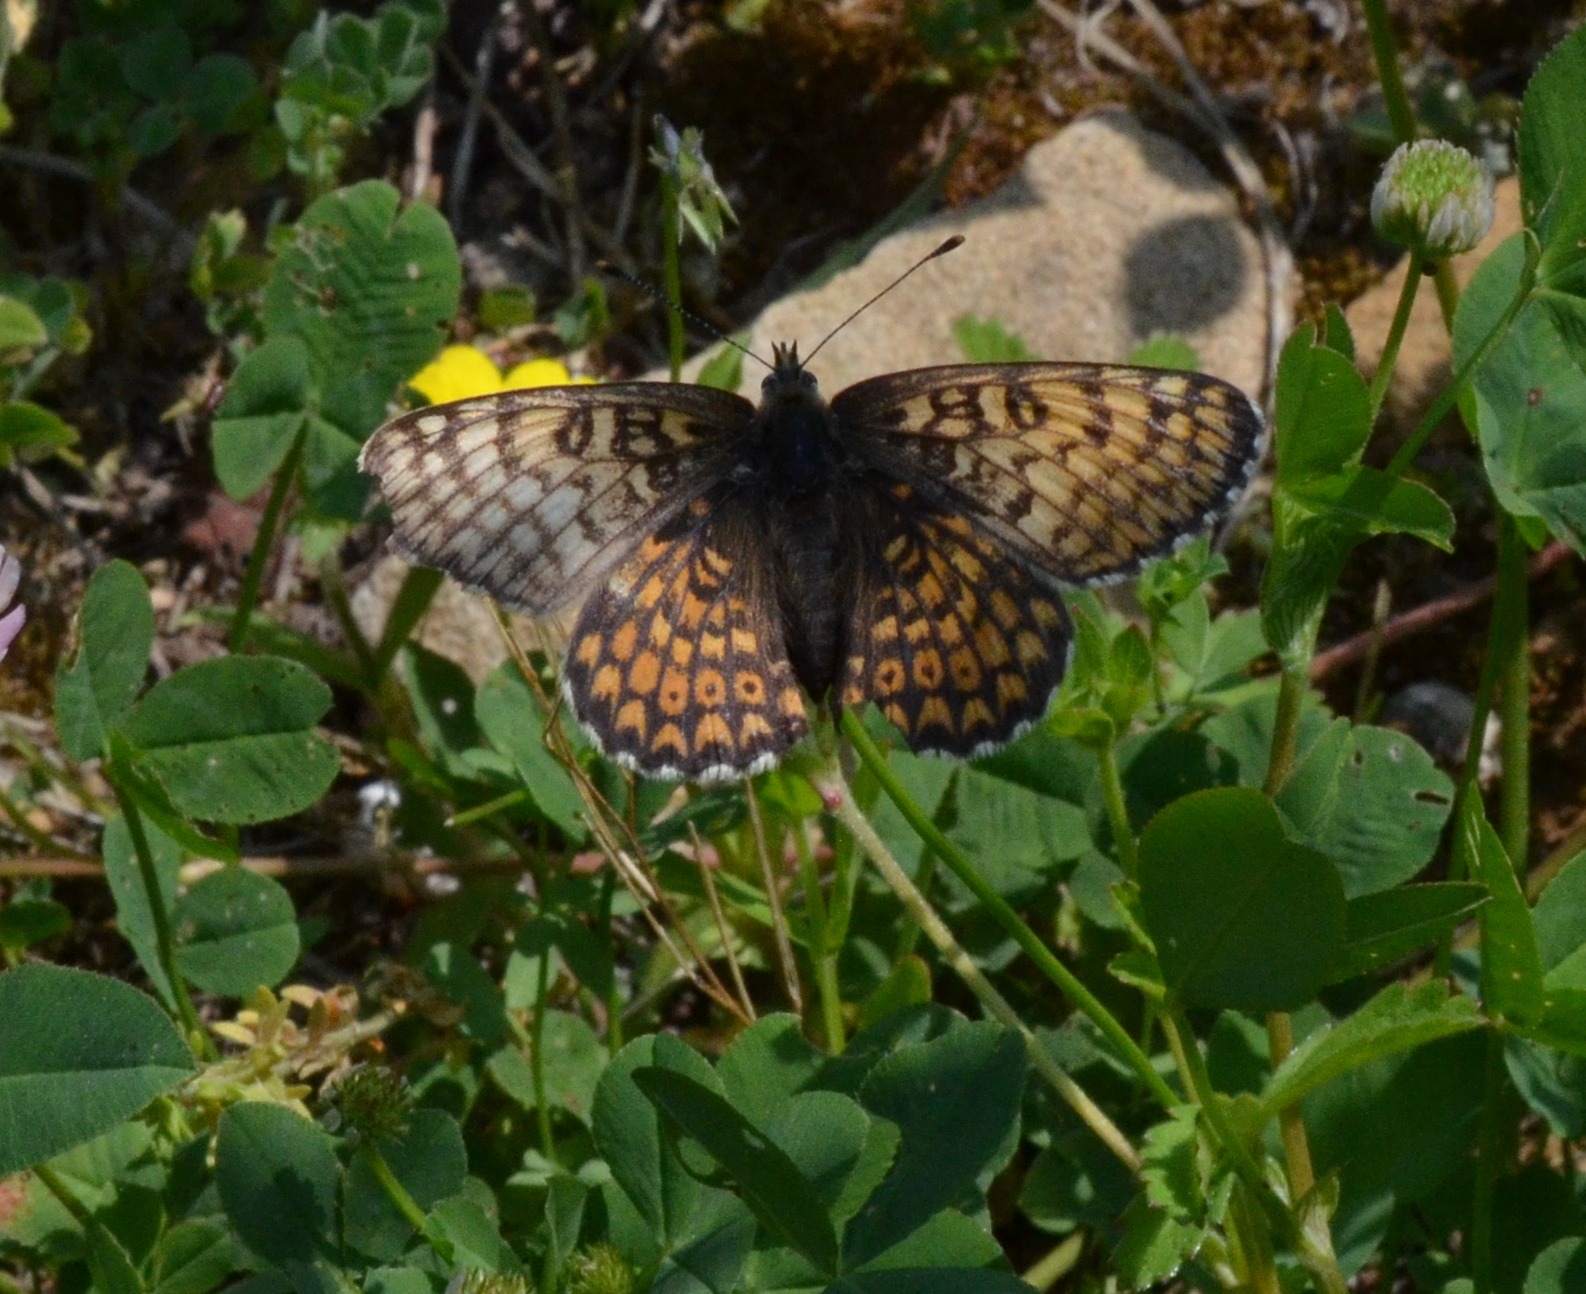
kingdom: Animalia
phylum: Arthropoda
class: Insecta
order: Lepidoptera
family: Nymphalidae
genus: Melitaea
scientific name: Melitaea cinxia
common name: Glanville fritillary
